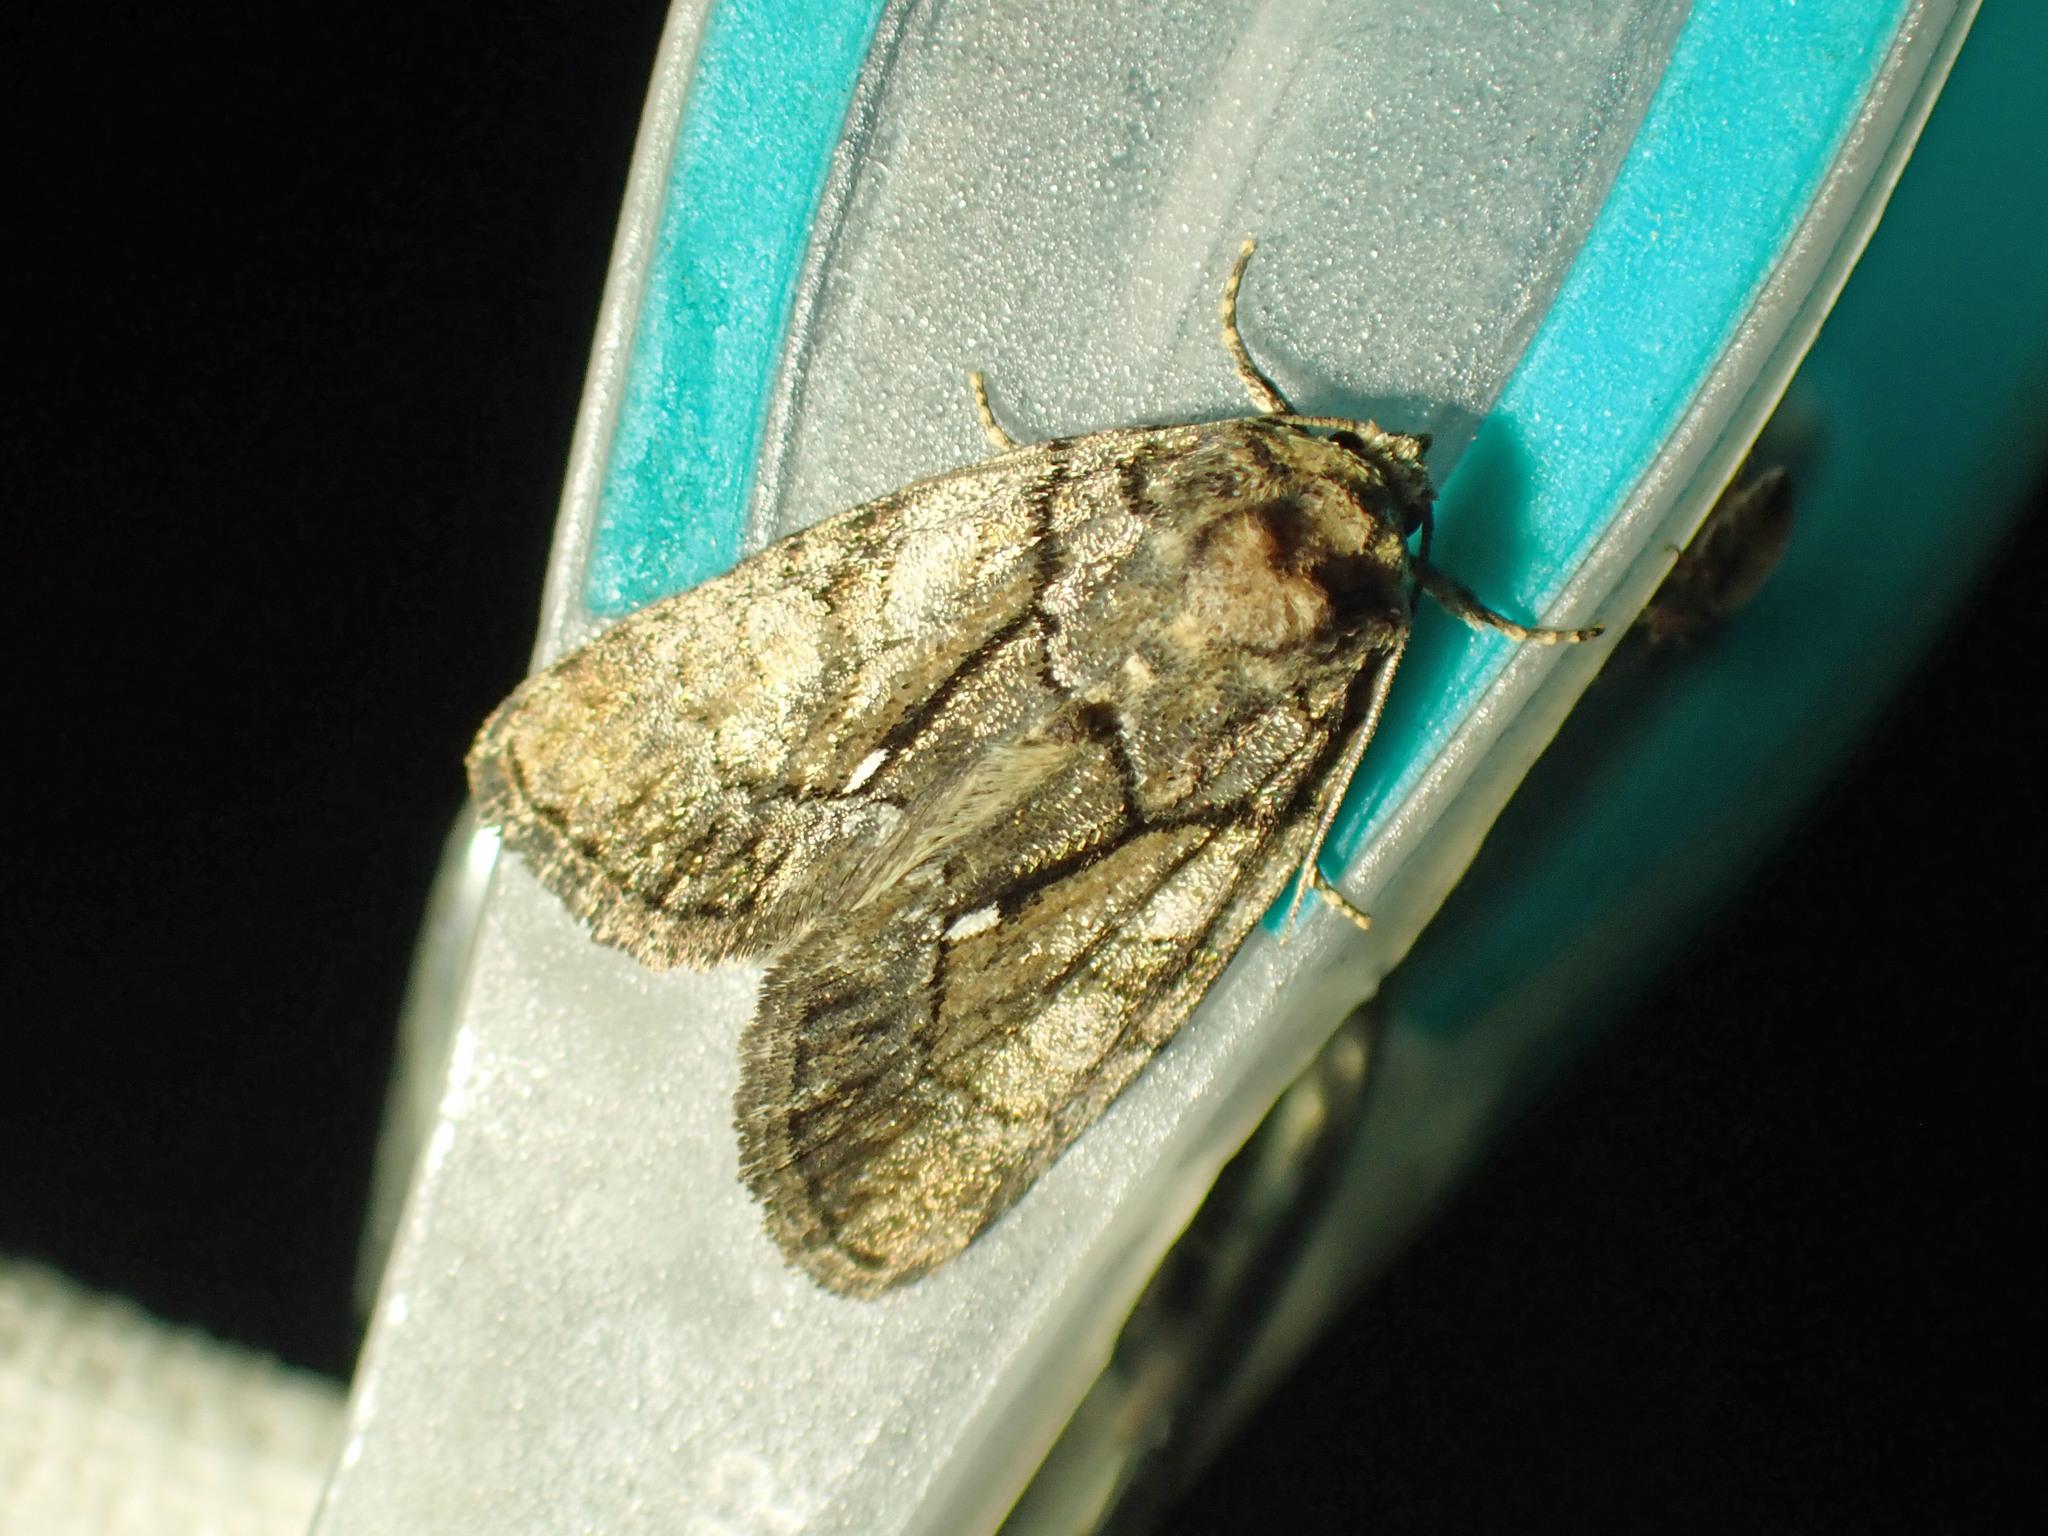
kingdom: Animalia
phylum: Arthropoda
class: Insecta
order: Lepidoptera
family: Noctuidae
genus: Chytonix
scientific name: Chytonix palliatricula
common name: Cloaked marvel
